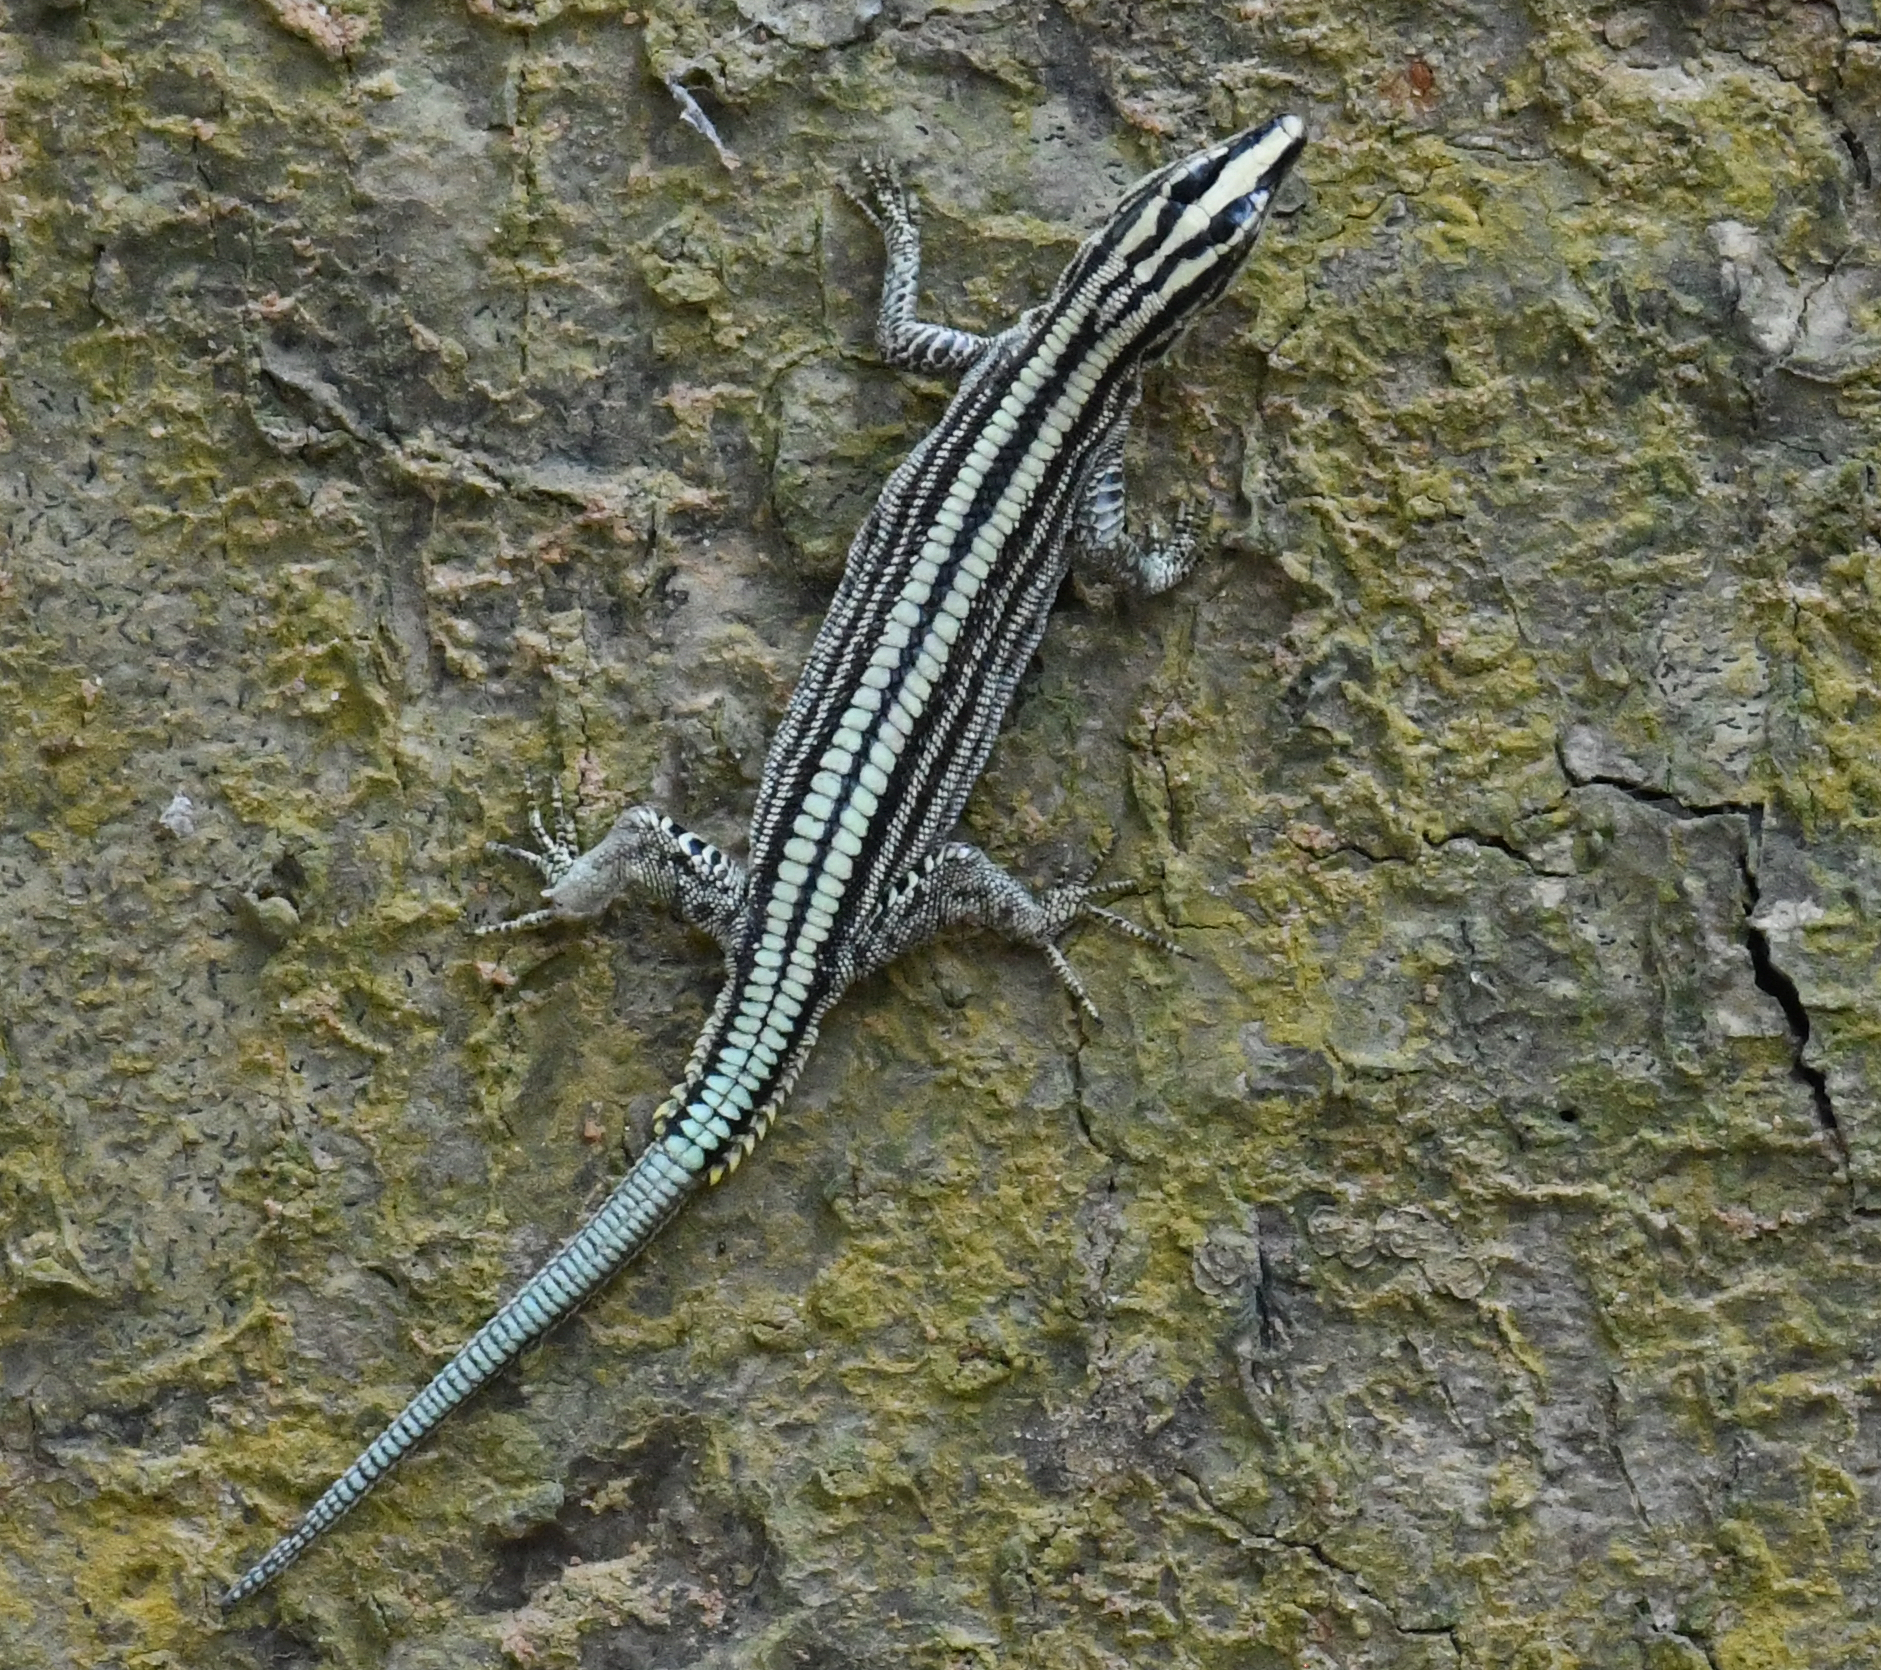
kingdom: Animalia
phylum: Chordata
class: Squamata
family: Lacertidae
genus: Holaspis
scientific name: Holaspis guentheri
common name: Sawtail lizard
